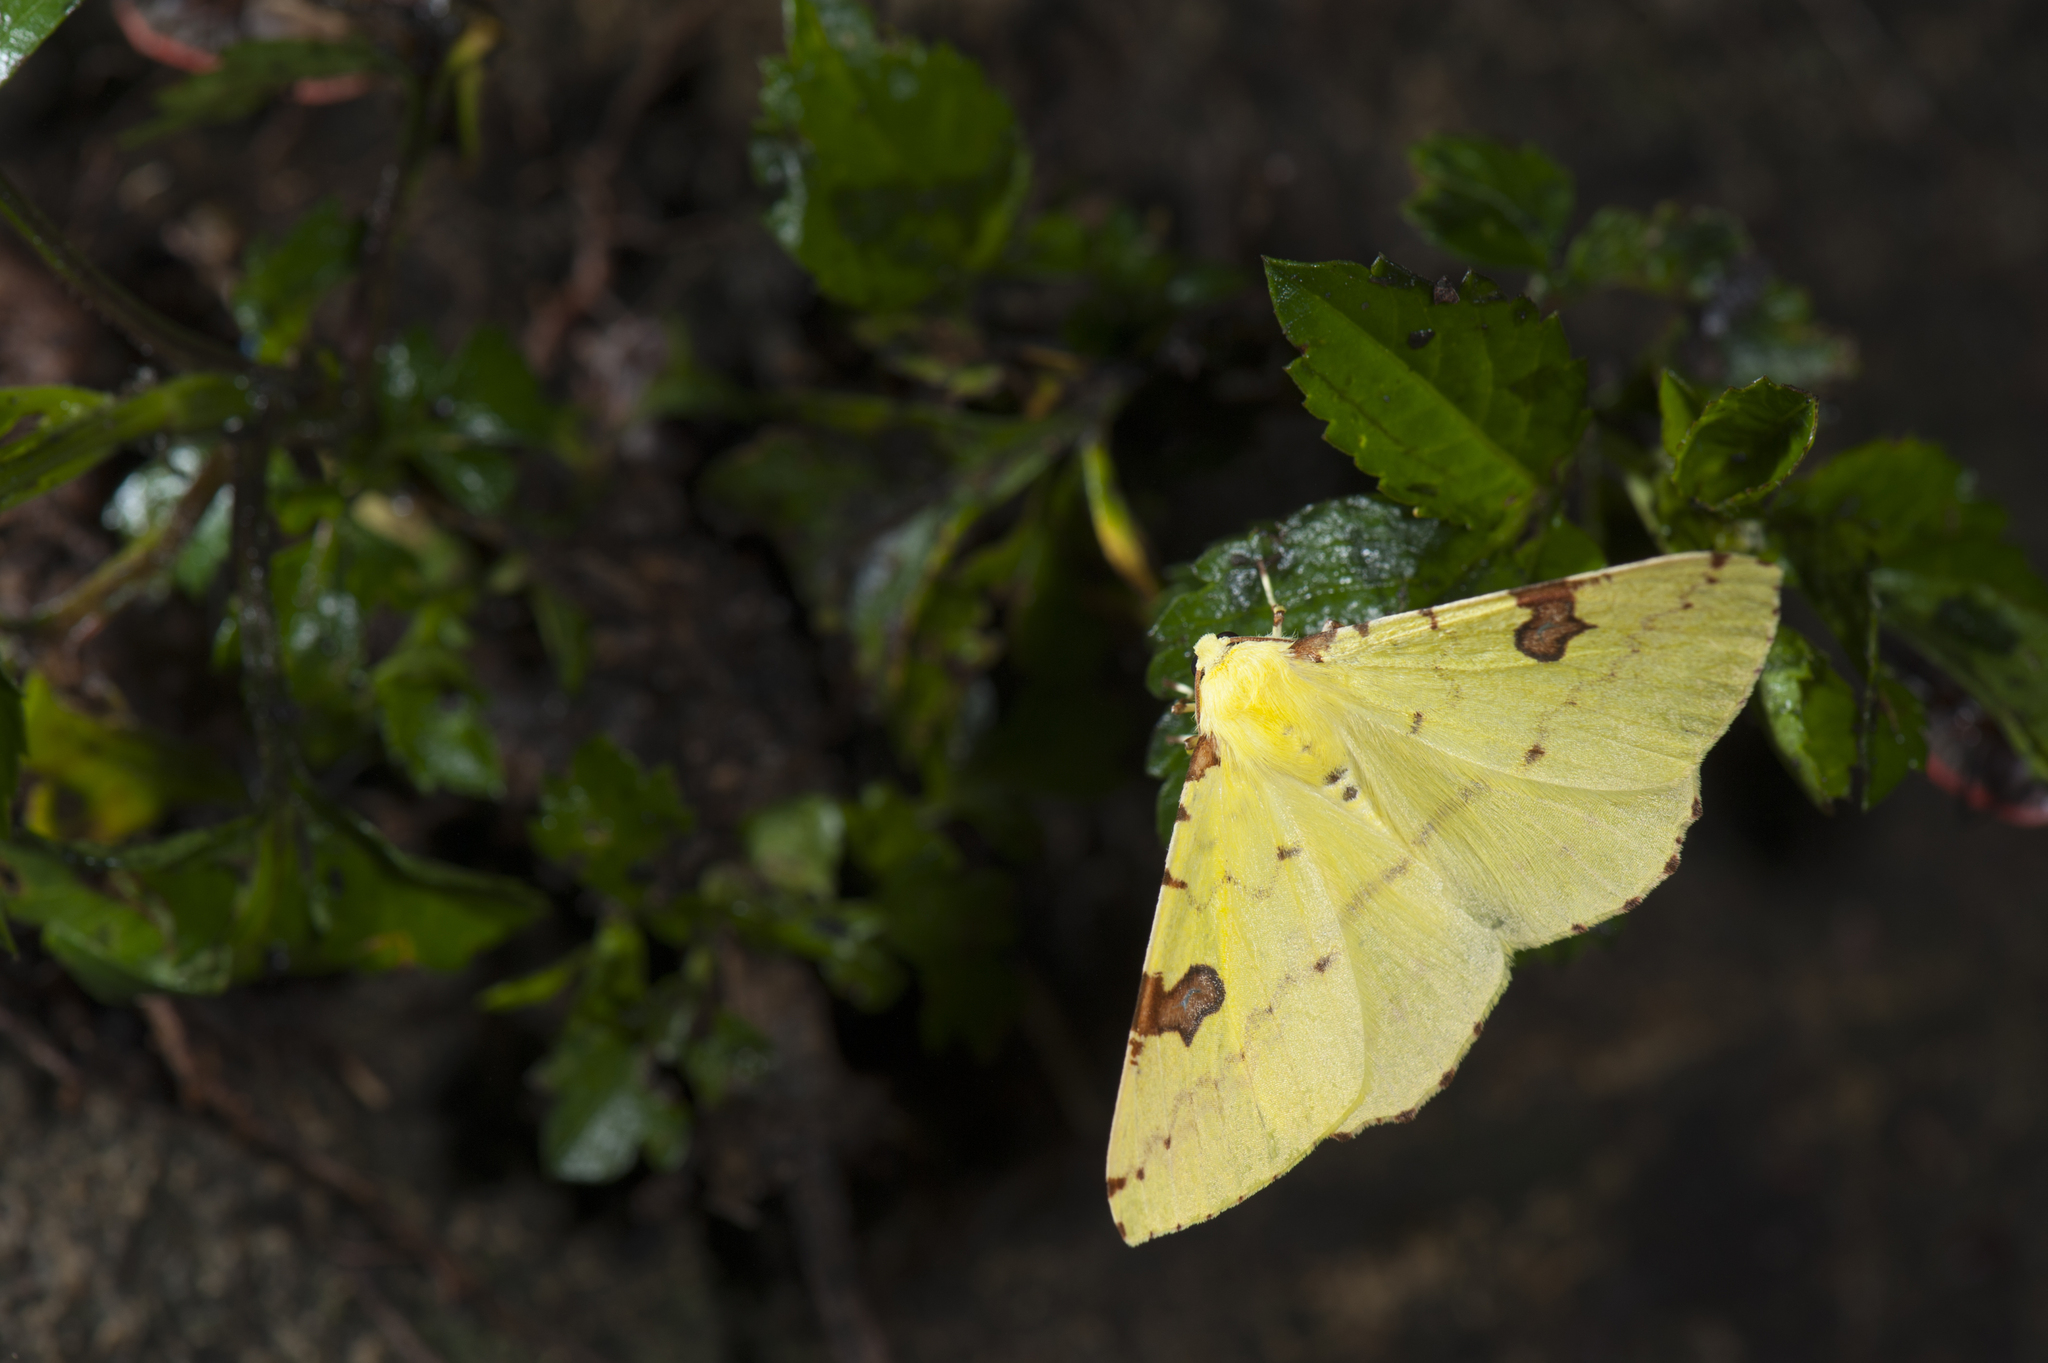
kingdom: Animalia
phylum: Arthropoda
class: Insecta
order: Lepidoptera
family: Geometridae
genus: Opisthograptis
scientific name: Opisthograptis punctilineata
